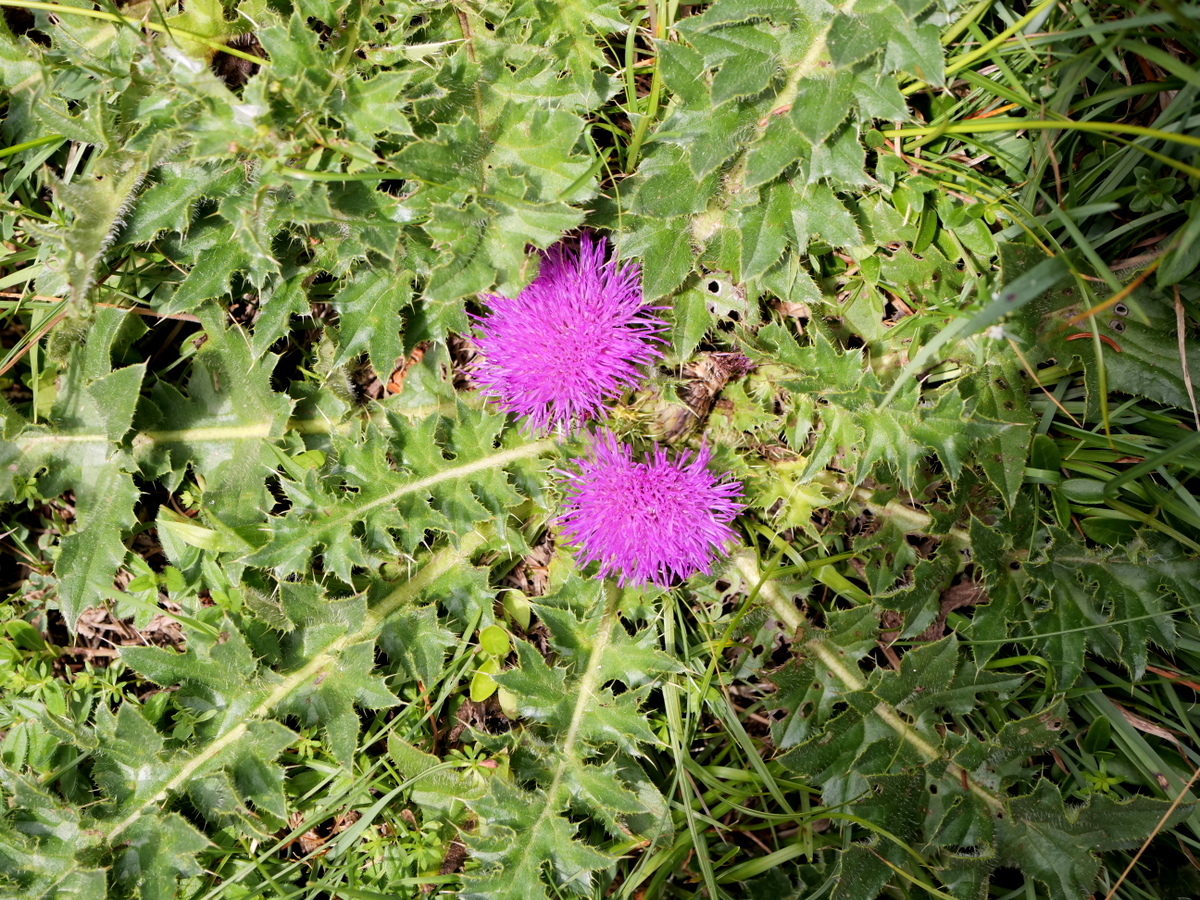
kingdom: Plantae
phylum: Tracheophyta
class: Magnoliopsida
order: Asterales
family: Asteraceae
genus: Cirsium
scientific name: Cirsium acaulon
